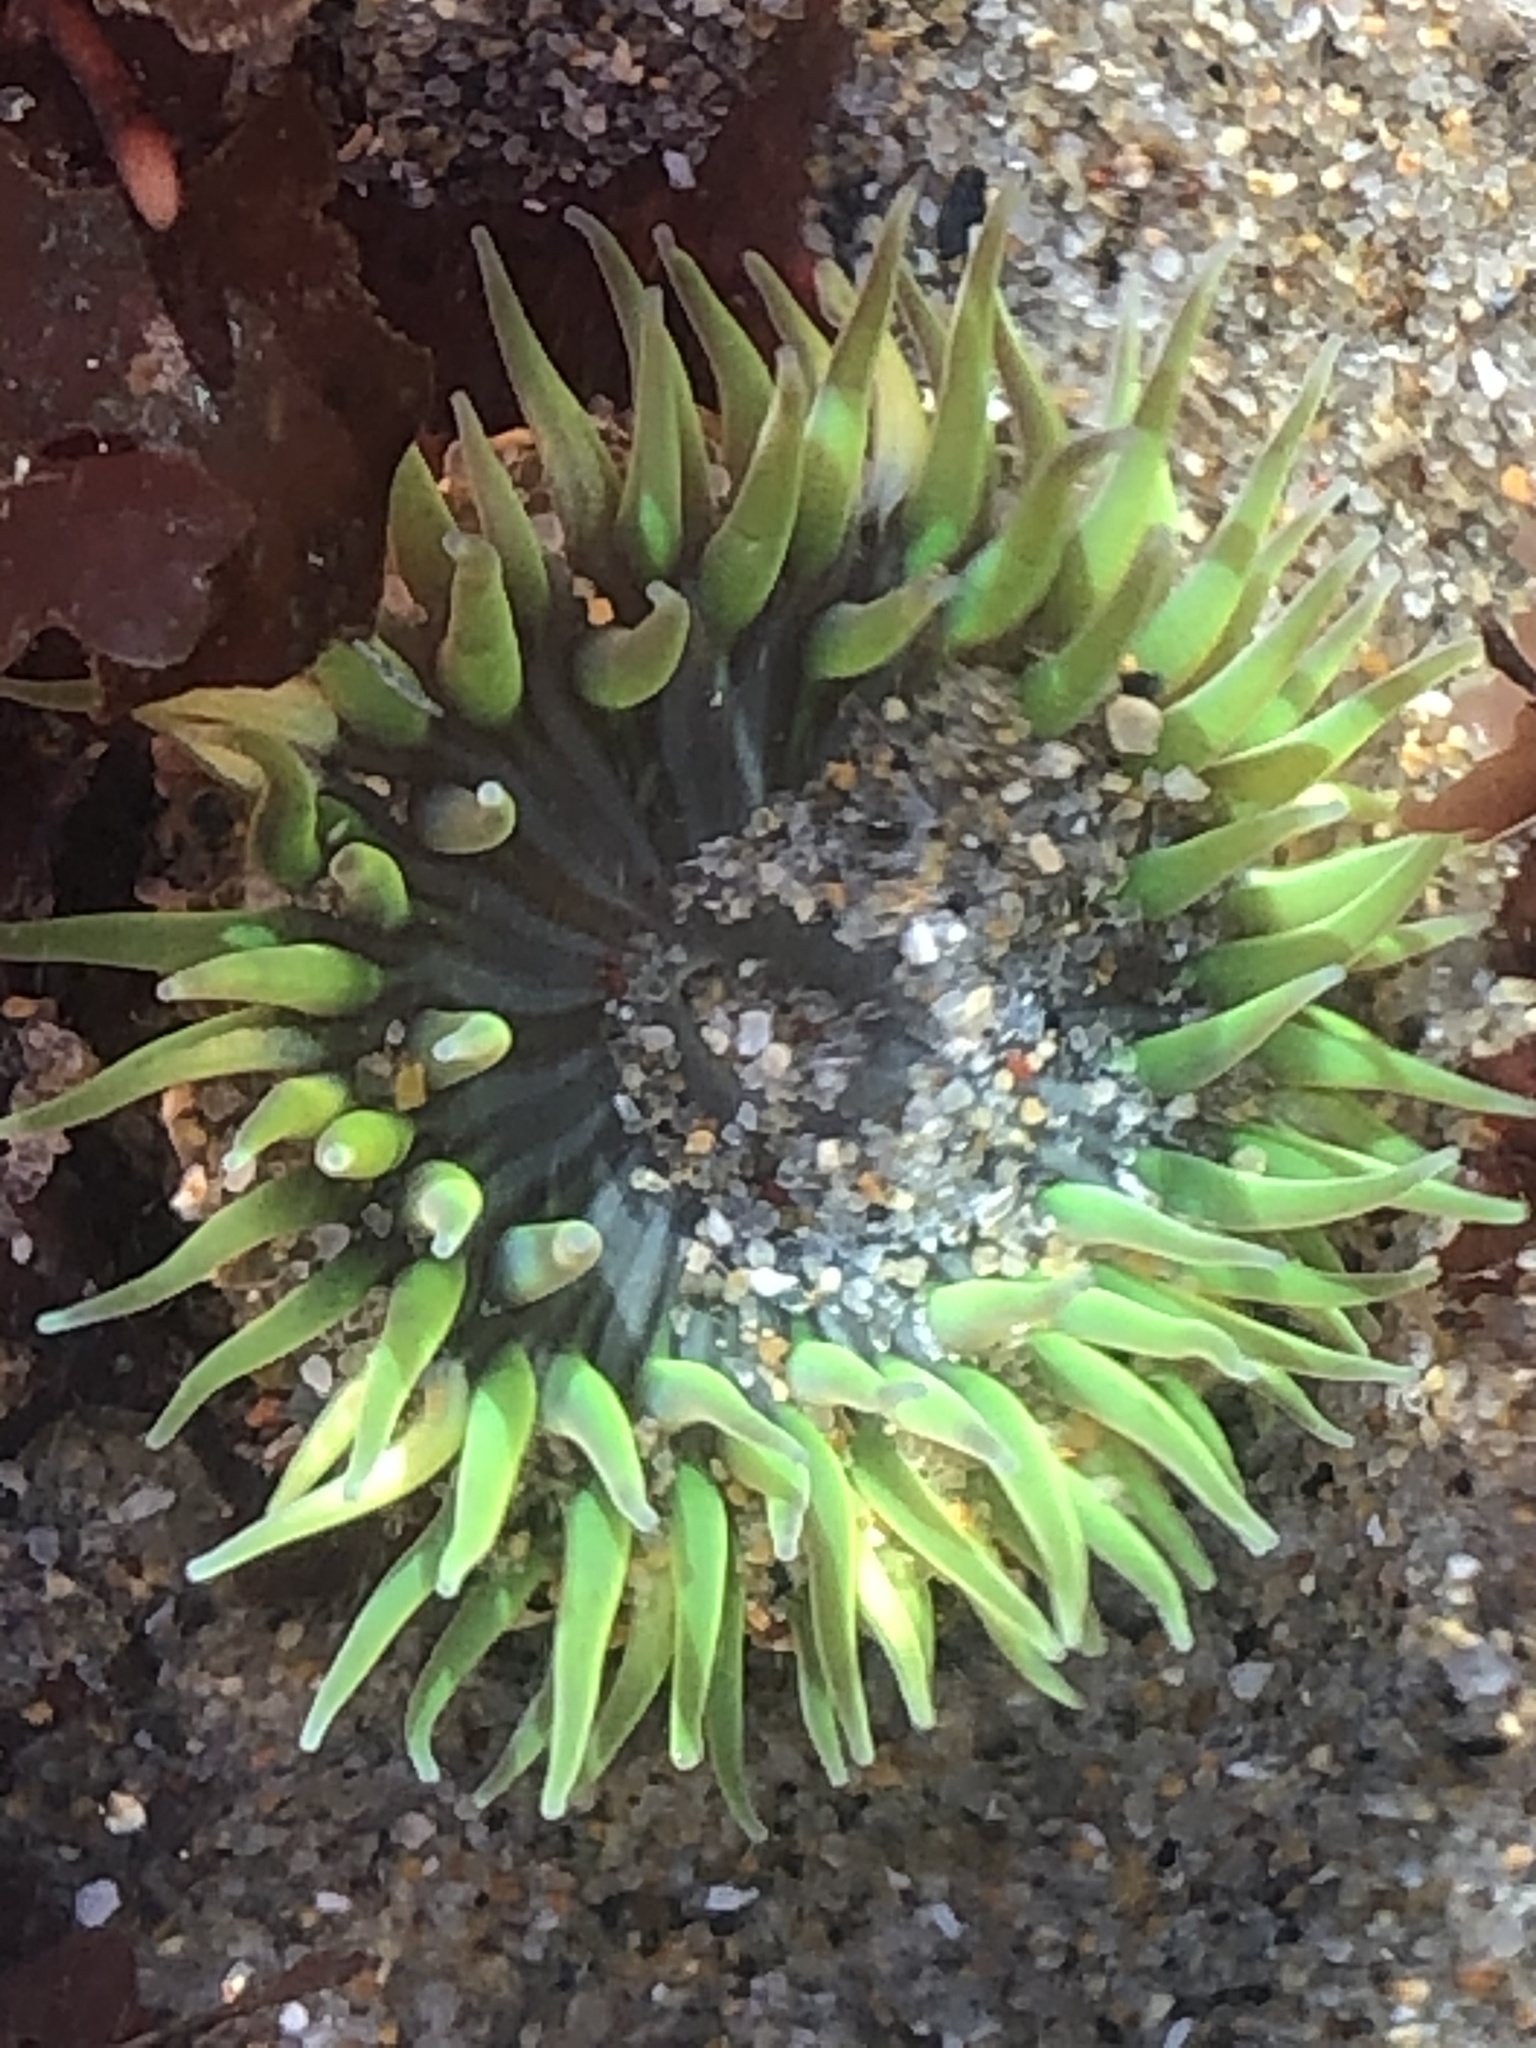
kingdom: Animalia
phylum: Cnidaria
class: Anthozoa
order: Actiniaria
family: Actiniidae
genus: Anthopleura
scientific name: Anthopleura sola
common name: Sun anemone
